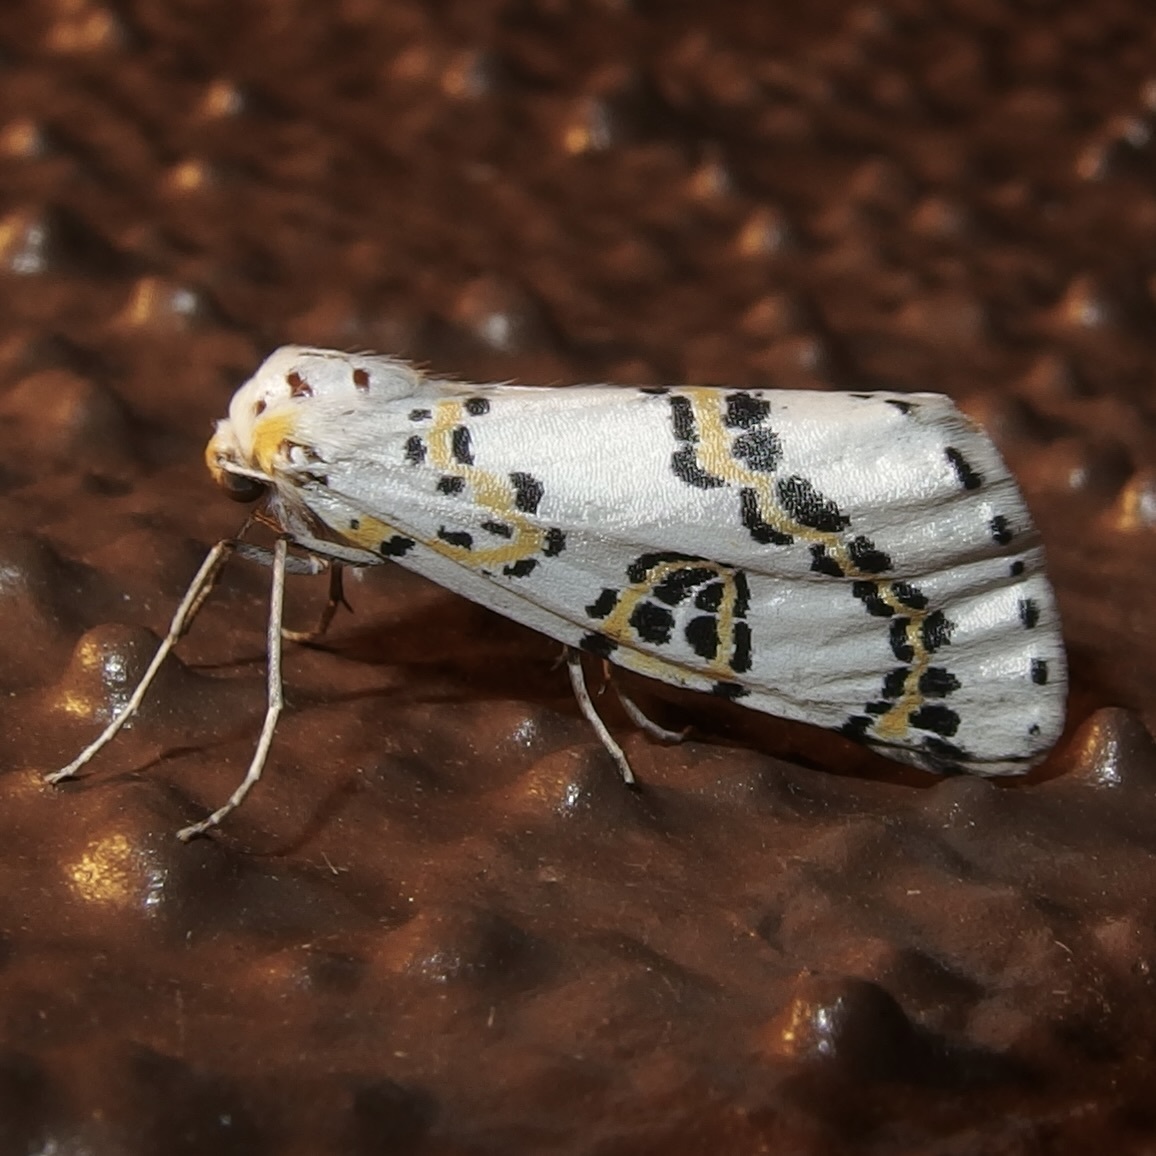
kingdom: Animalia
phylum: Arthropoda
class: Insecta
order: Lepidoptera
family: Geometridae
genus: Philtraea
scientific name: Philtraea elegantaria
